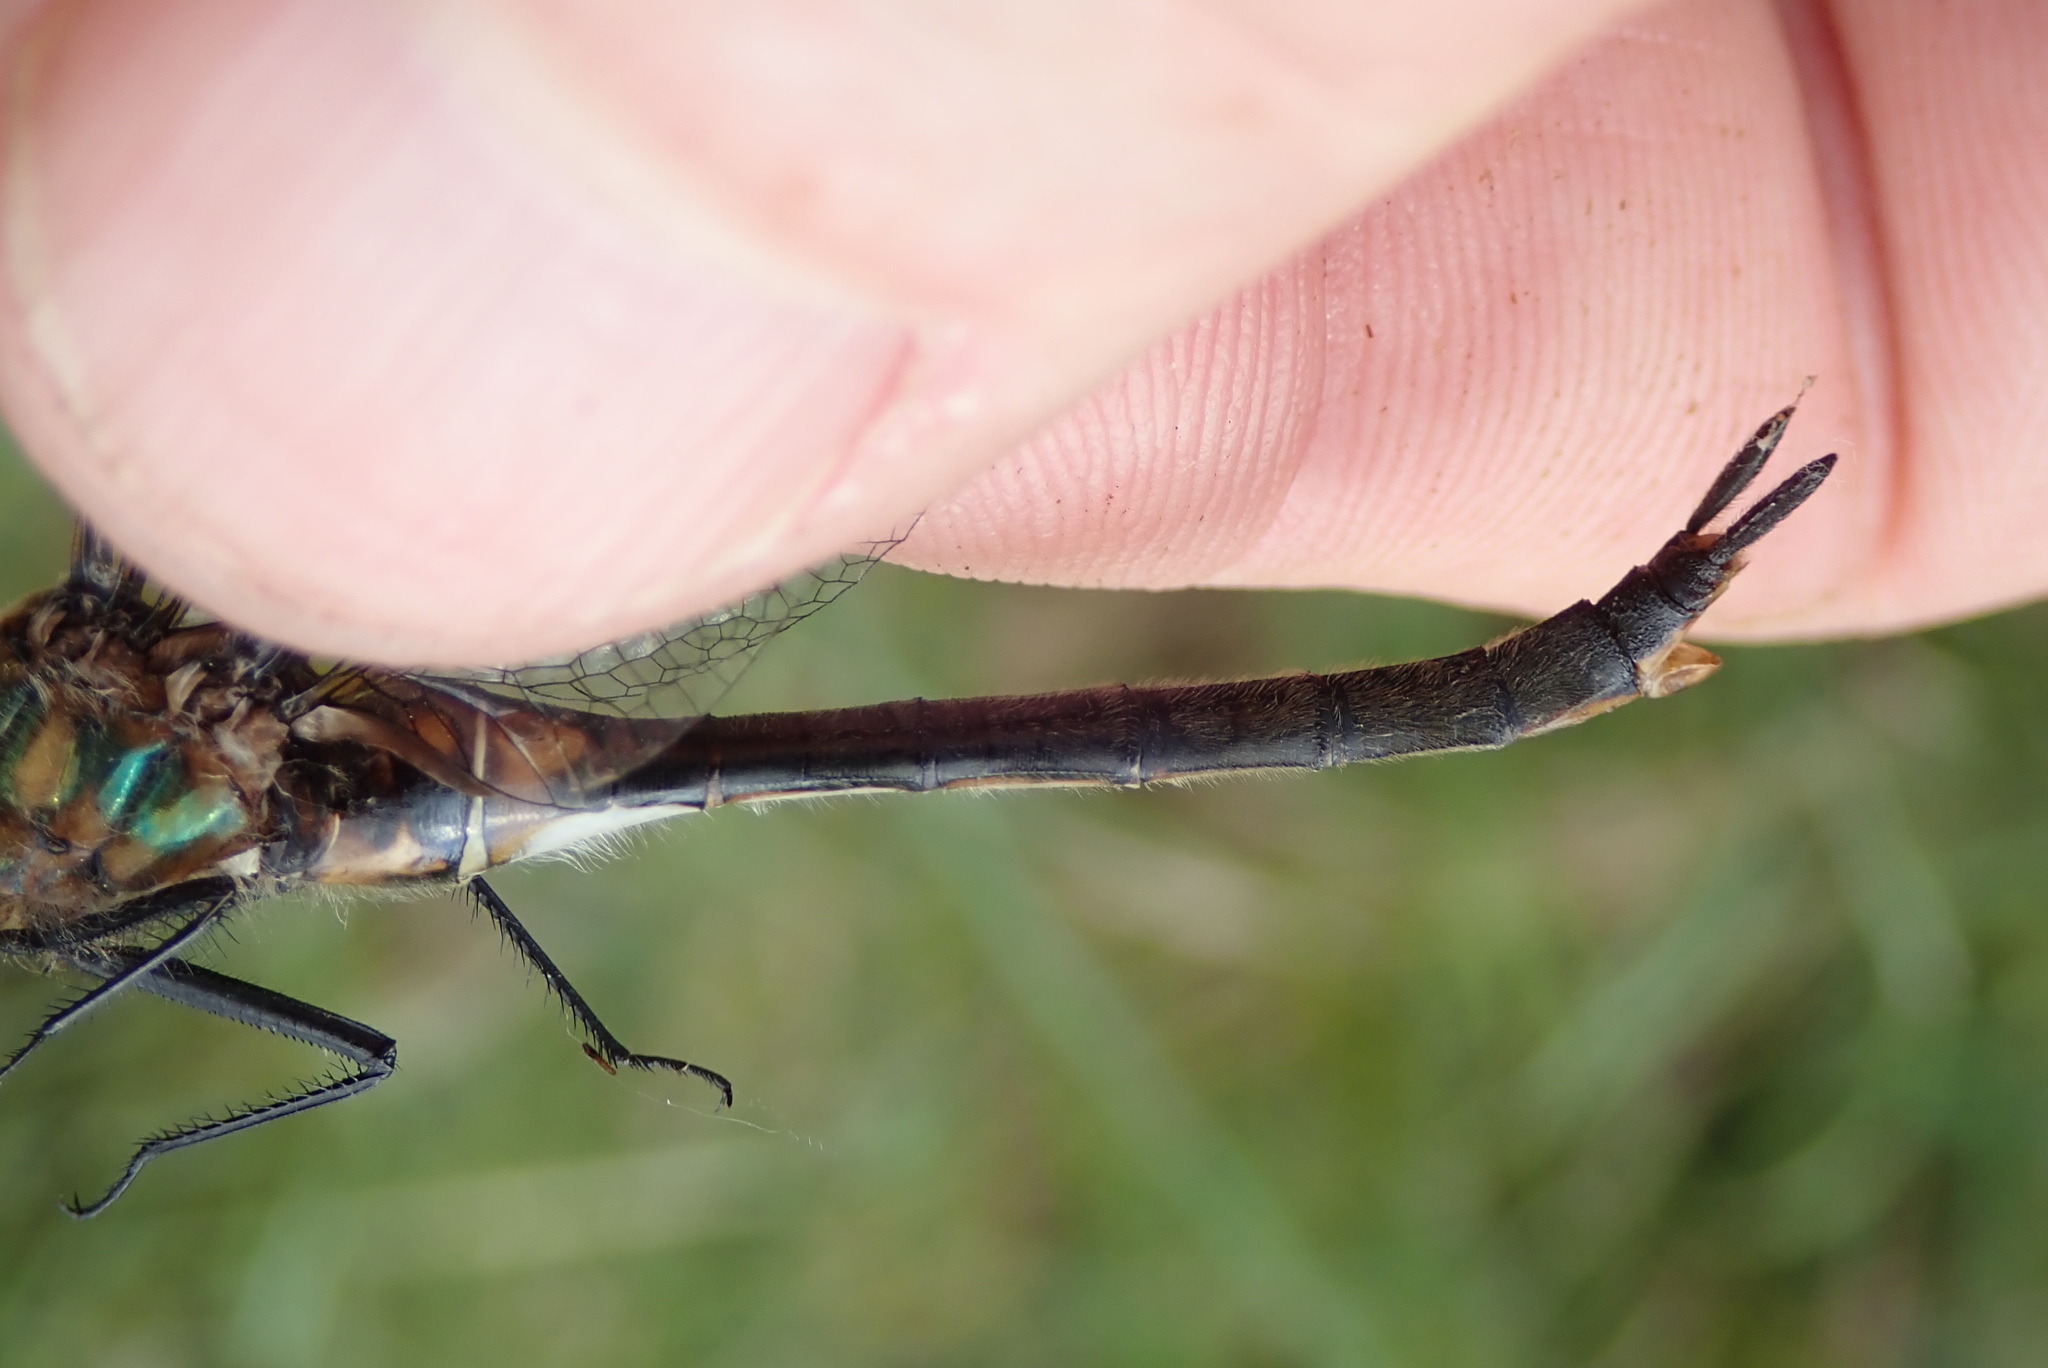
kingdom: Animalia
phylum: Arthropoda
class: Insecta
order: Odonata
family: Corduliidae
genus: Somatochlora
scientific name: Somatochlora kennedyi
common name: Kennedy's emerald
